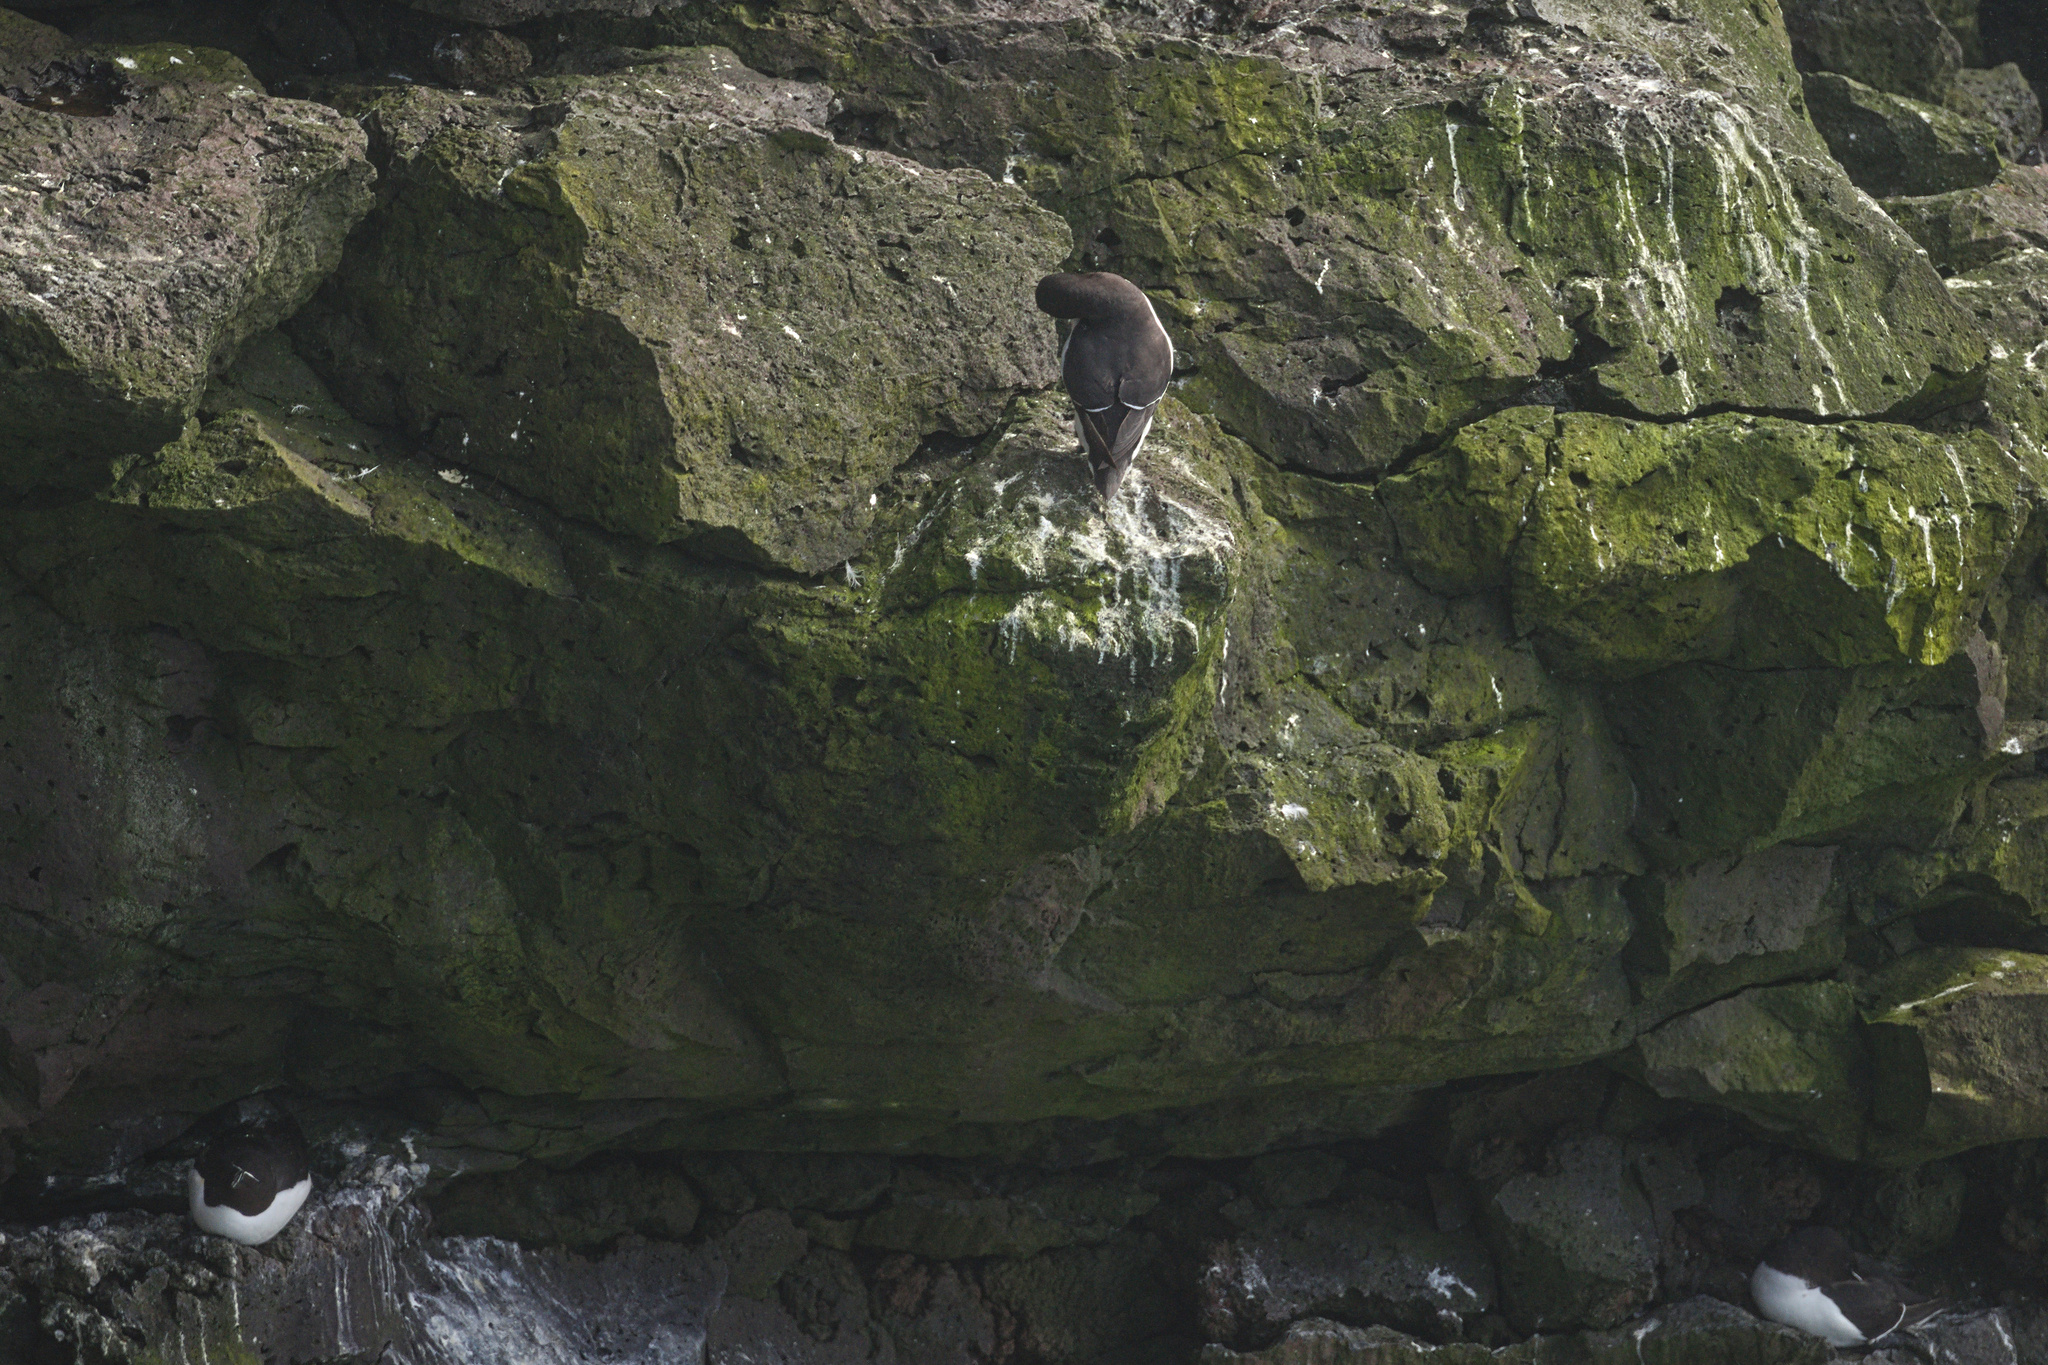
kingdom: Animalia
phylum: Chordata
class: Aves
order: Charadriiformes
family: Alcidae
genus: Alca
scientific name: Alca torda
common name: Razorbill
